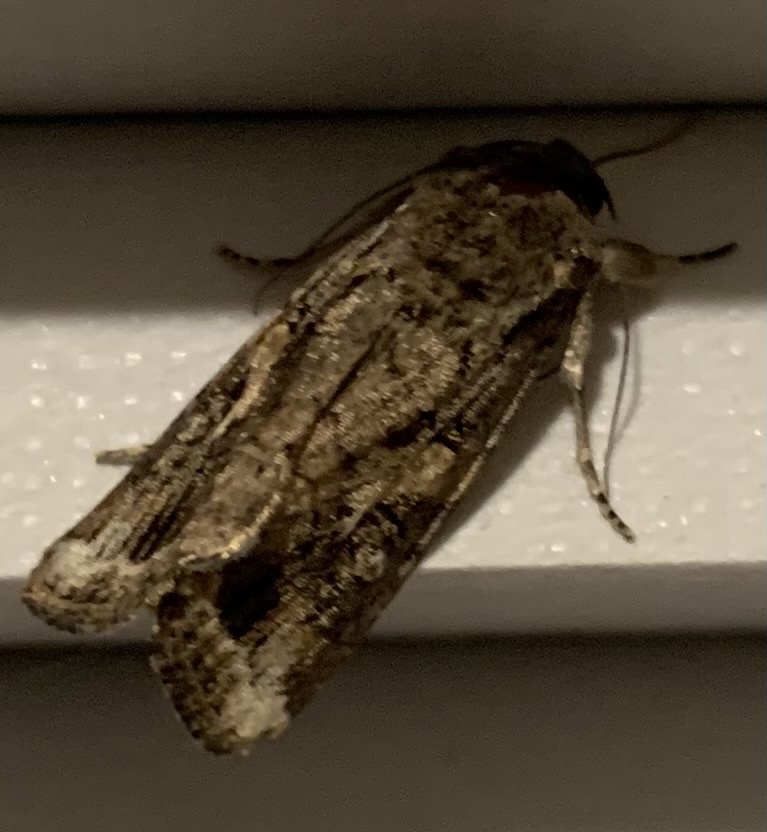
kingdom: Animalia
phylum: Arthropoda
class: Insecta
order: Lepidoptera
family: Noctuidae
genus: Spodoptera
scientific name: Spodoptera frugiperda
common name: Fall armyworm
